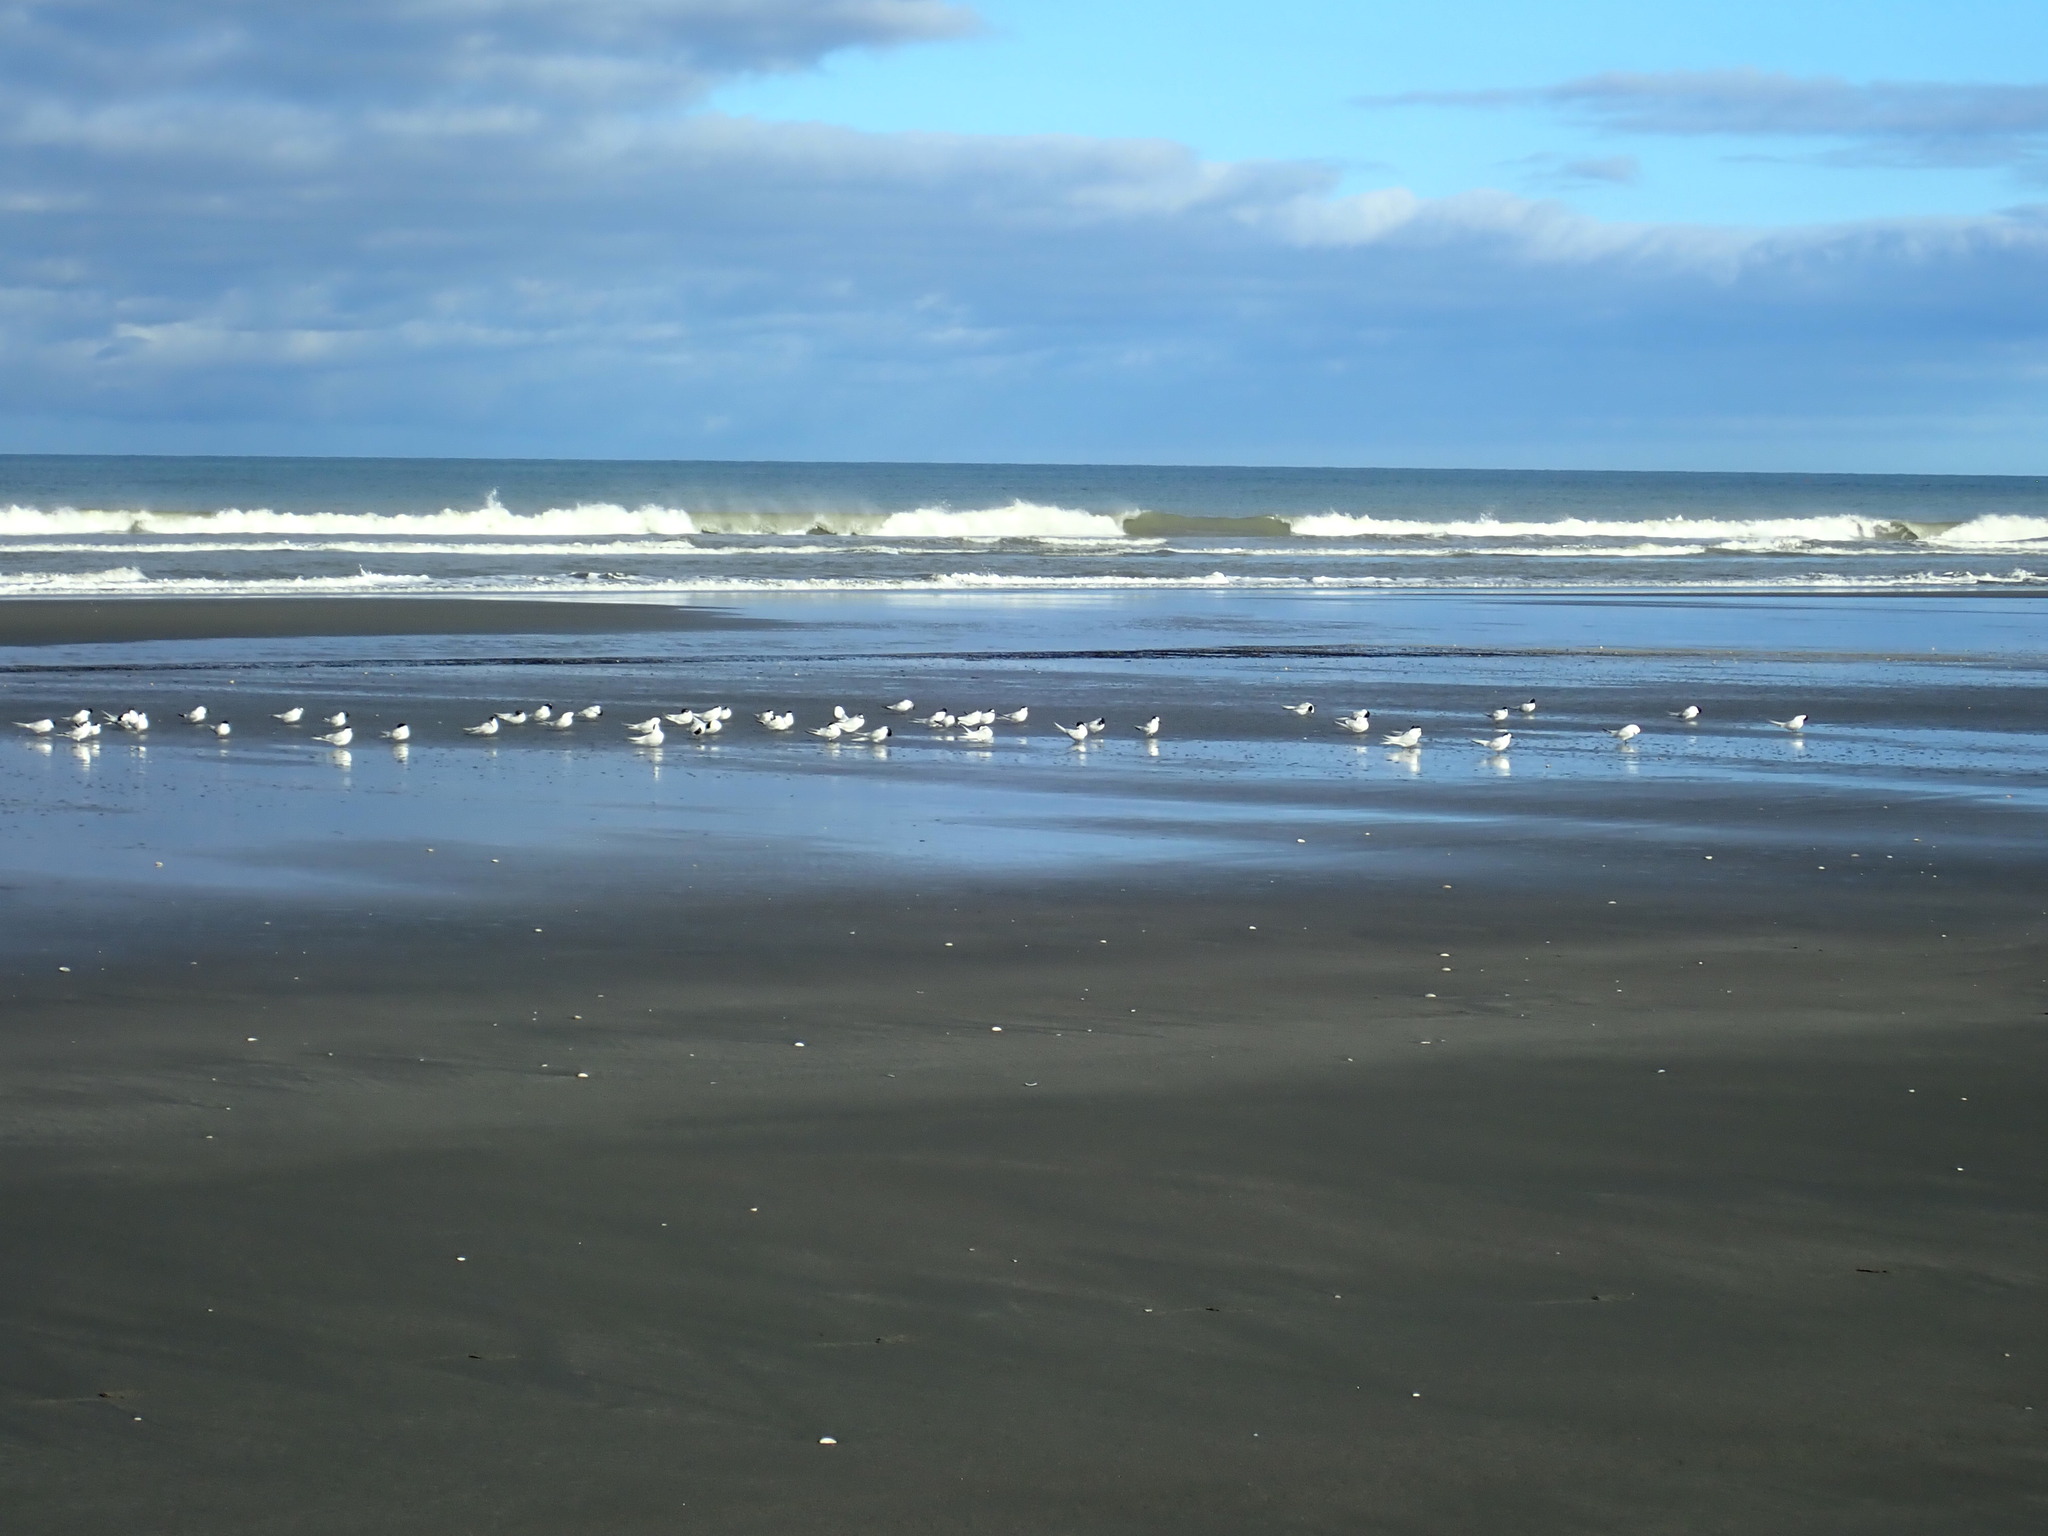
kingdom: Animalia
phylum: Chordata
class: Aves
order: Charadriiformes
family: Laridae
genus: Sterna
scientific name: Sterna striata
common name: White-fronted tern
